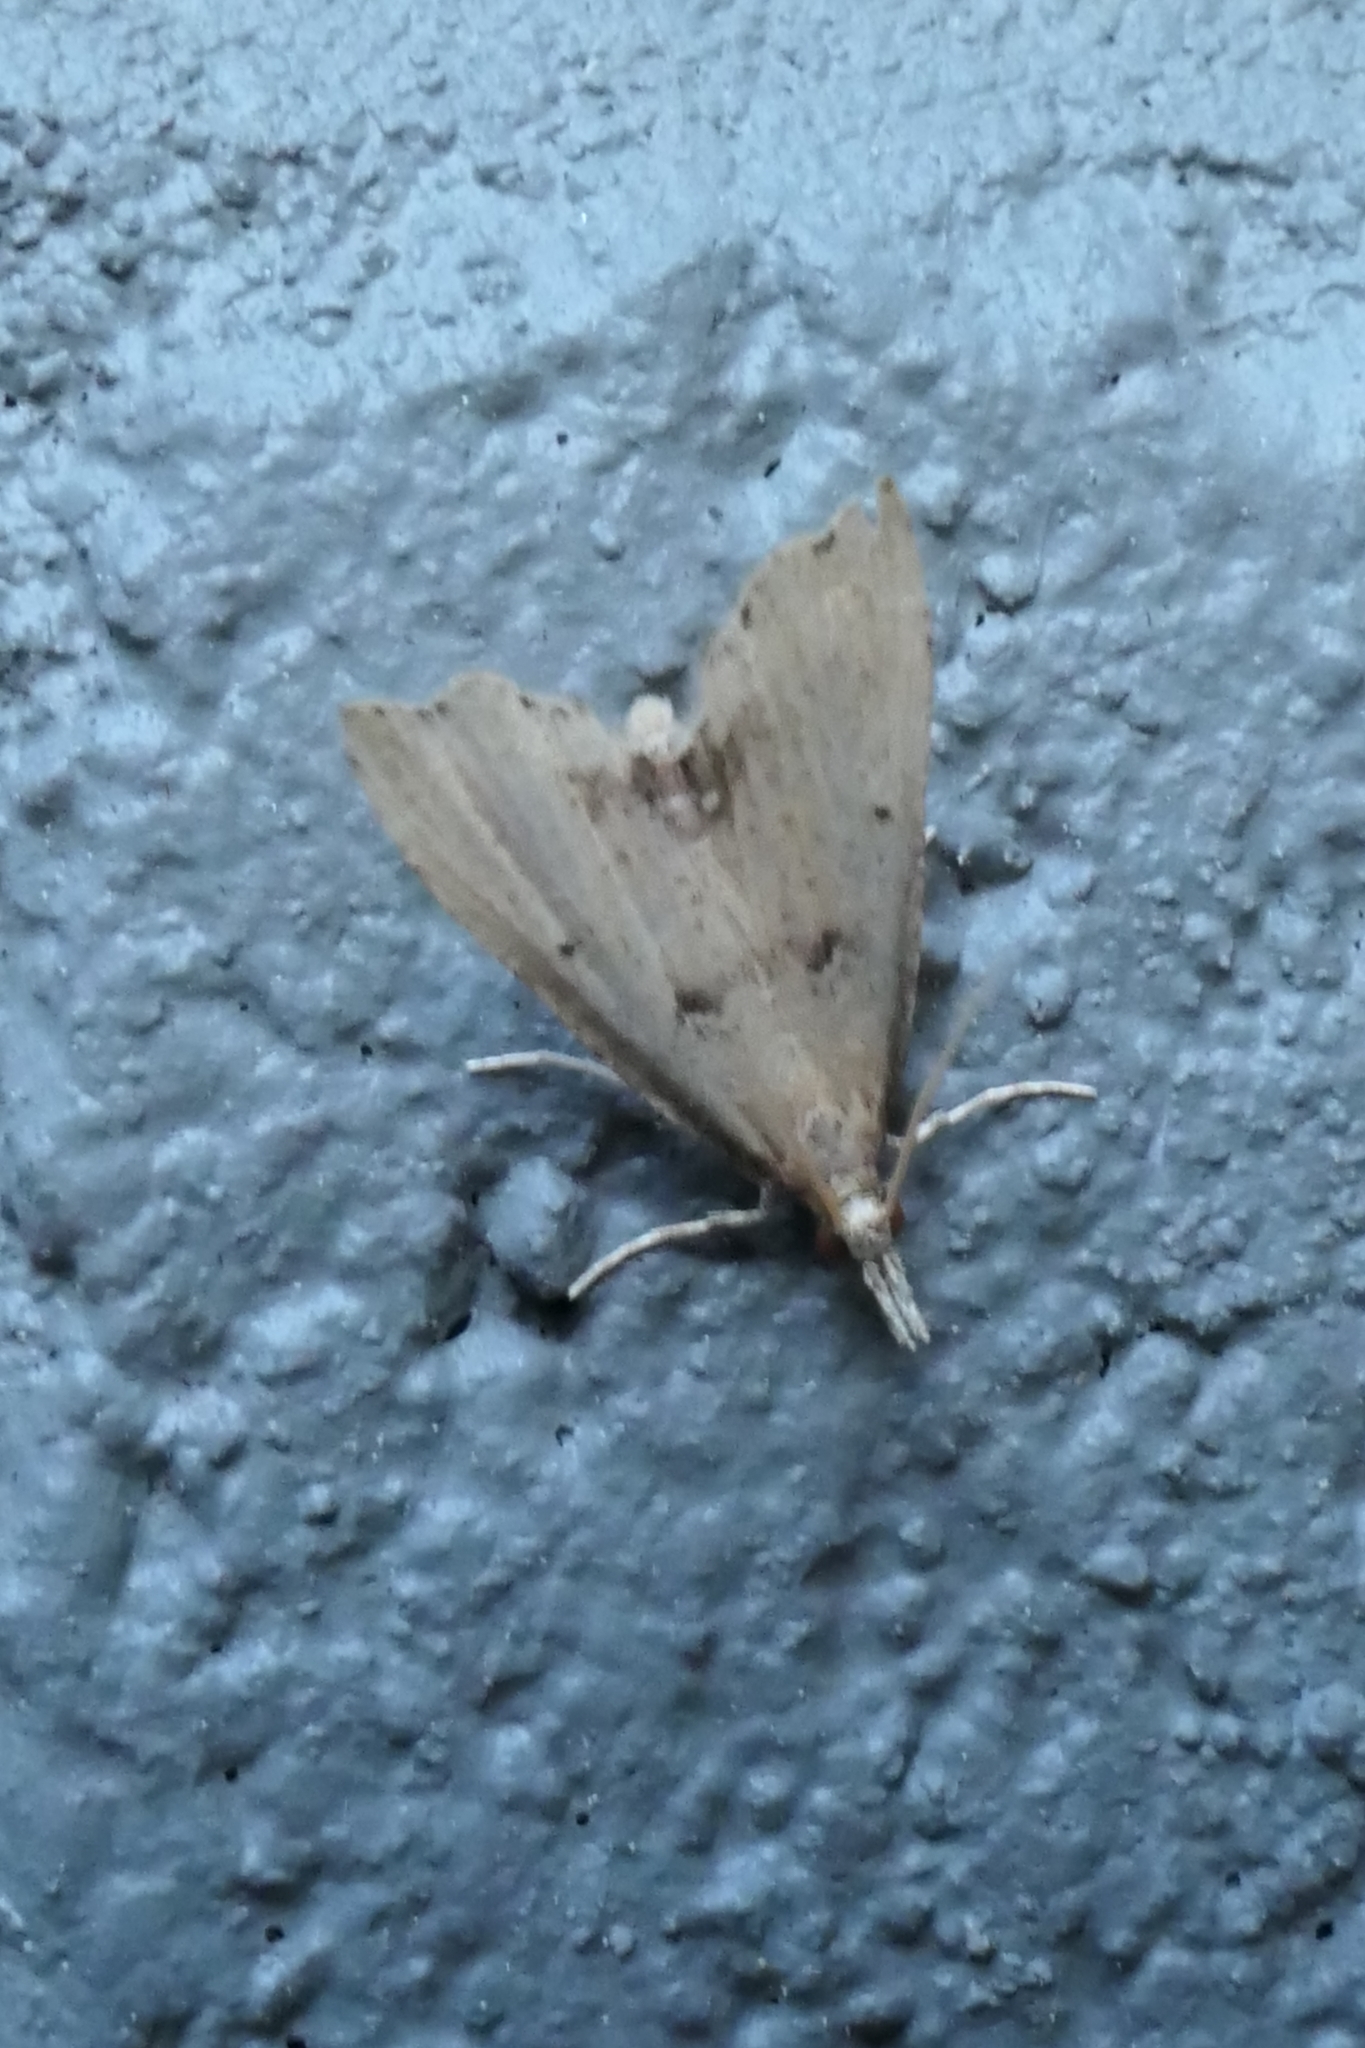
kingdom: Animalia
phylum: Arthropoda
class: Insecta
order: Lepidoptera
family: Crambidae
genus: Diplopseustis
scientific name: Diplopseustis perieresalis
